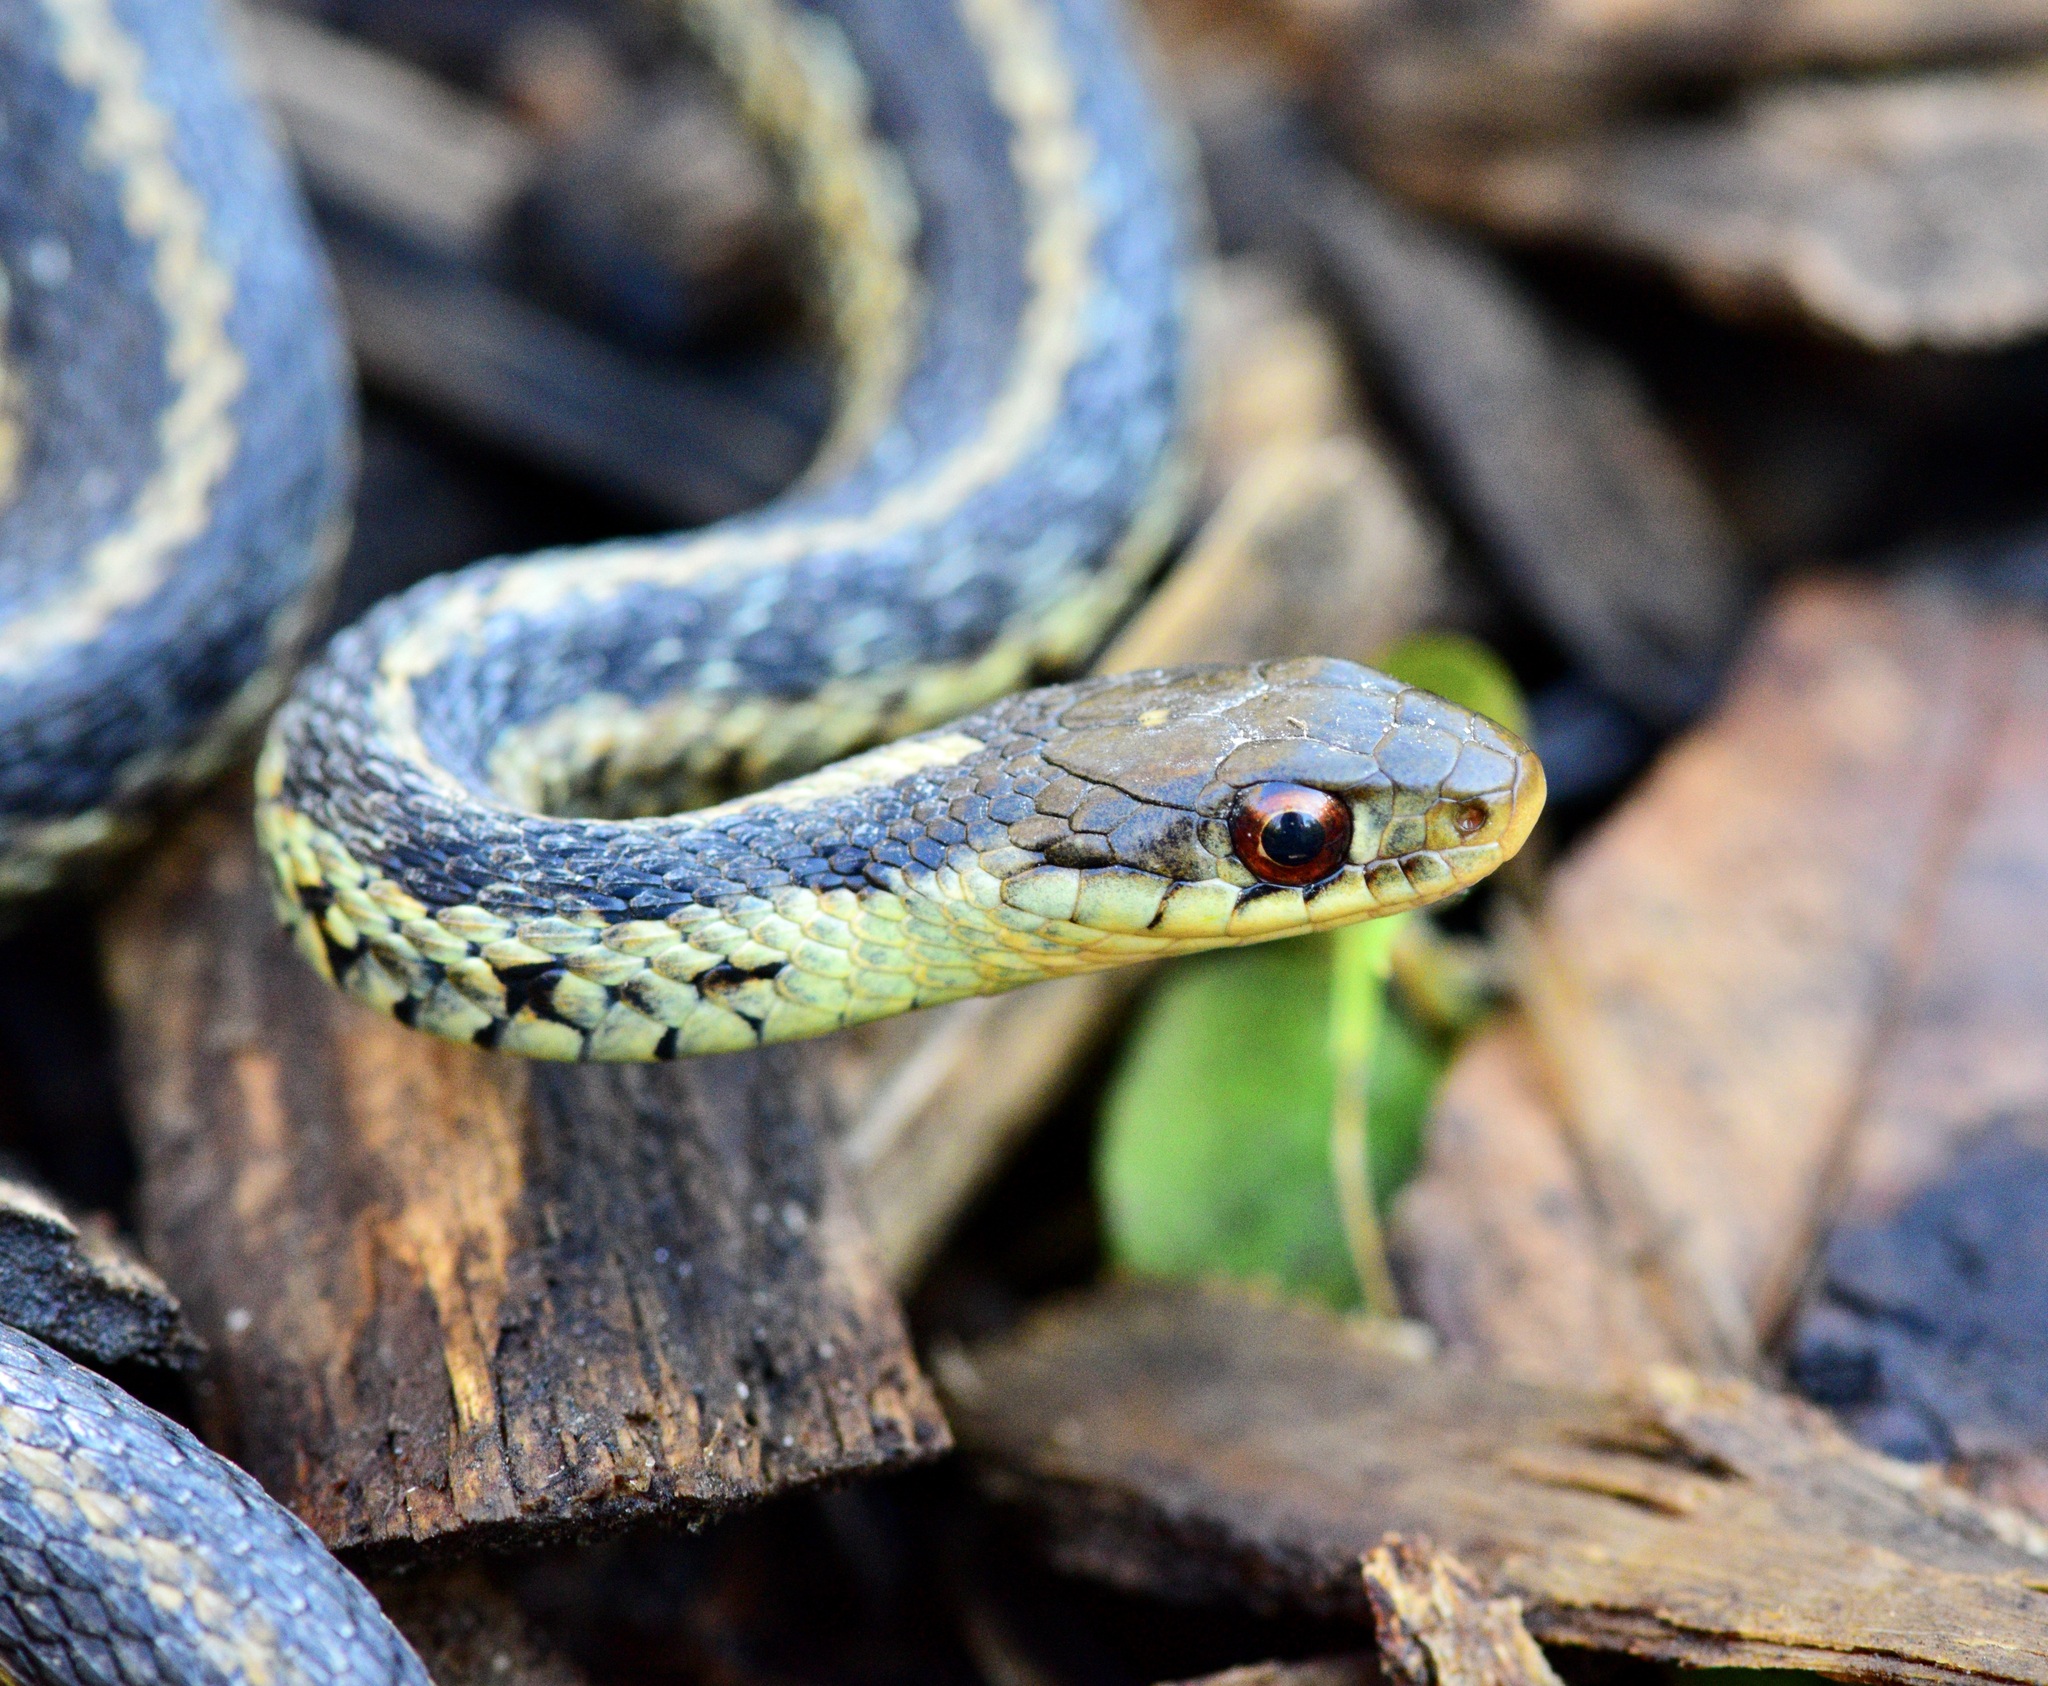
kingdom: Animalia
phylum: Chordata
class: Squamata
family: Colubridae
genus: Thamnophis
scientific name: Thamnophis sirtalis
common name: Common garter snake
